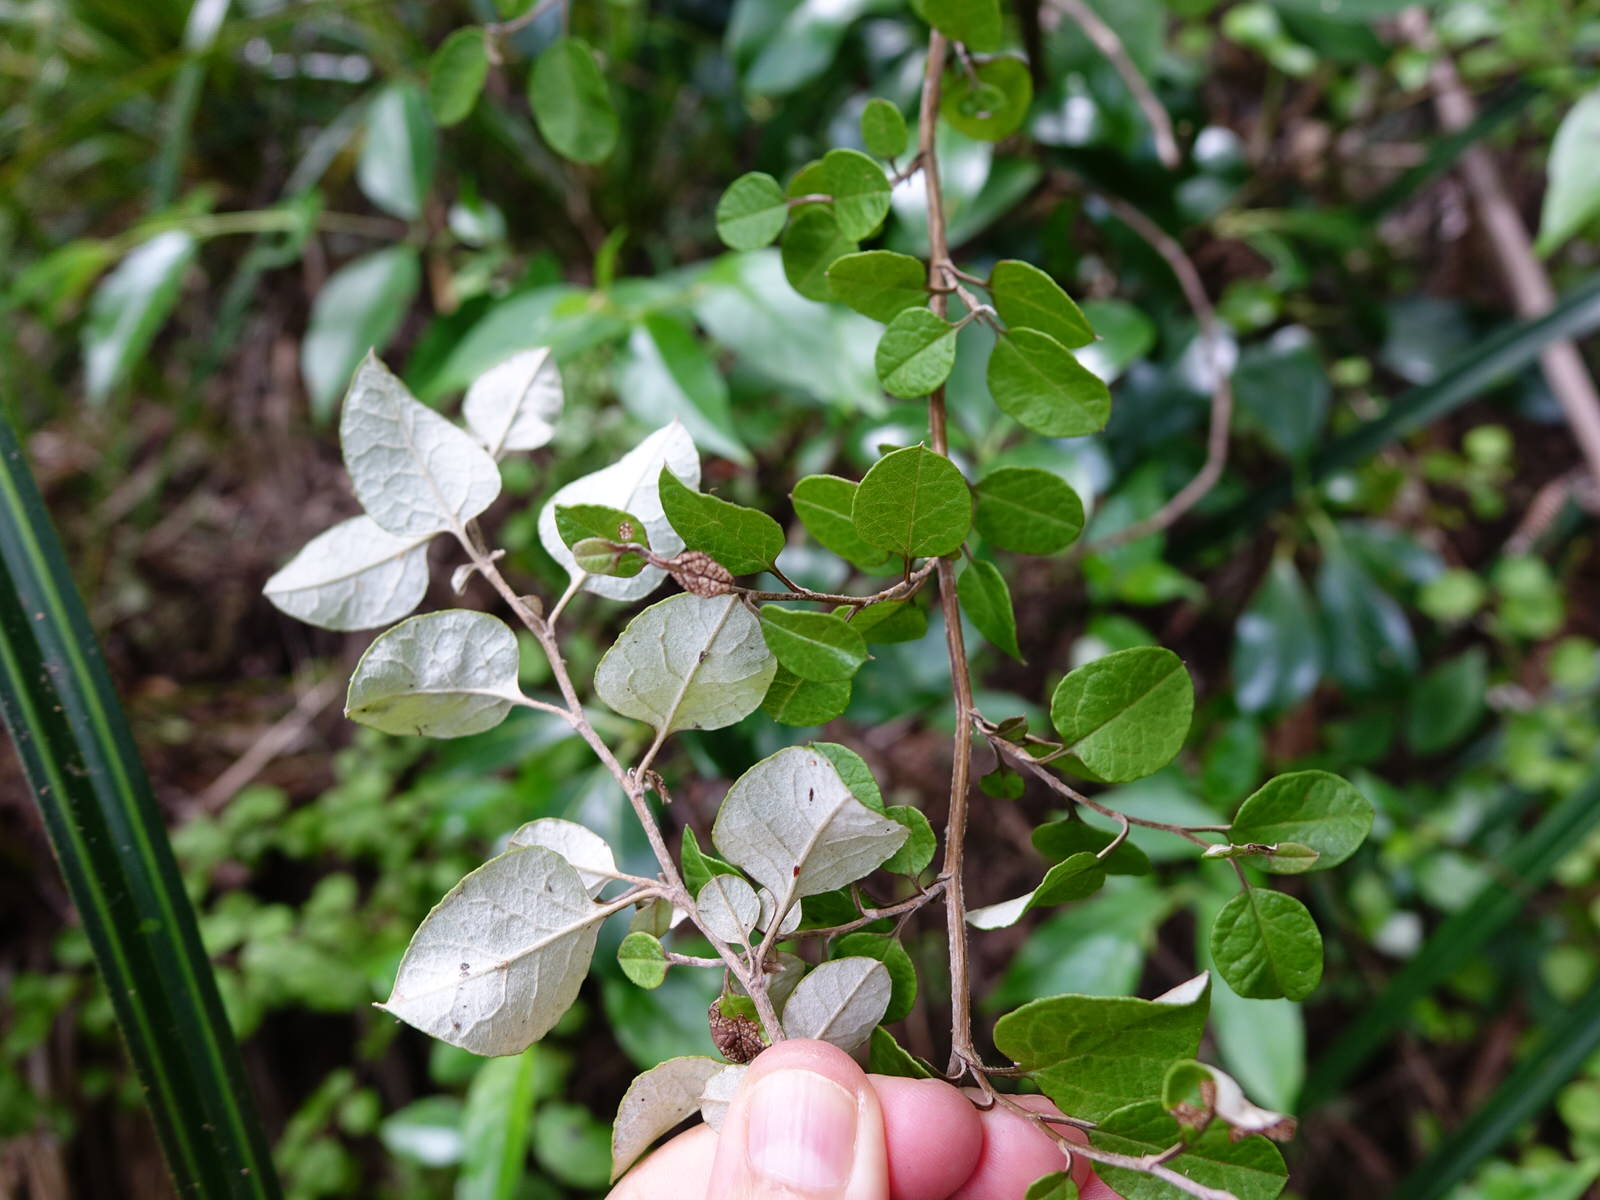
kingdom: Plantae
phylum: Tracheophyta
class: Magnoliopsida
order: Asterales
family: Asteraceae
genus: Ozothamnus
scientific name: Ozothamnus glomeratus
